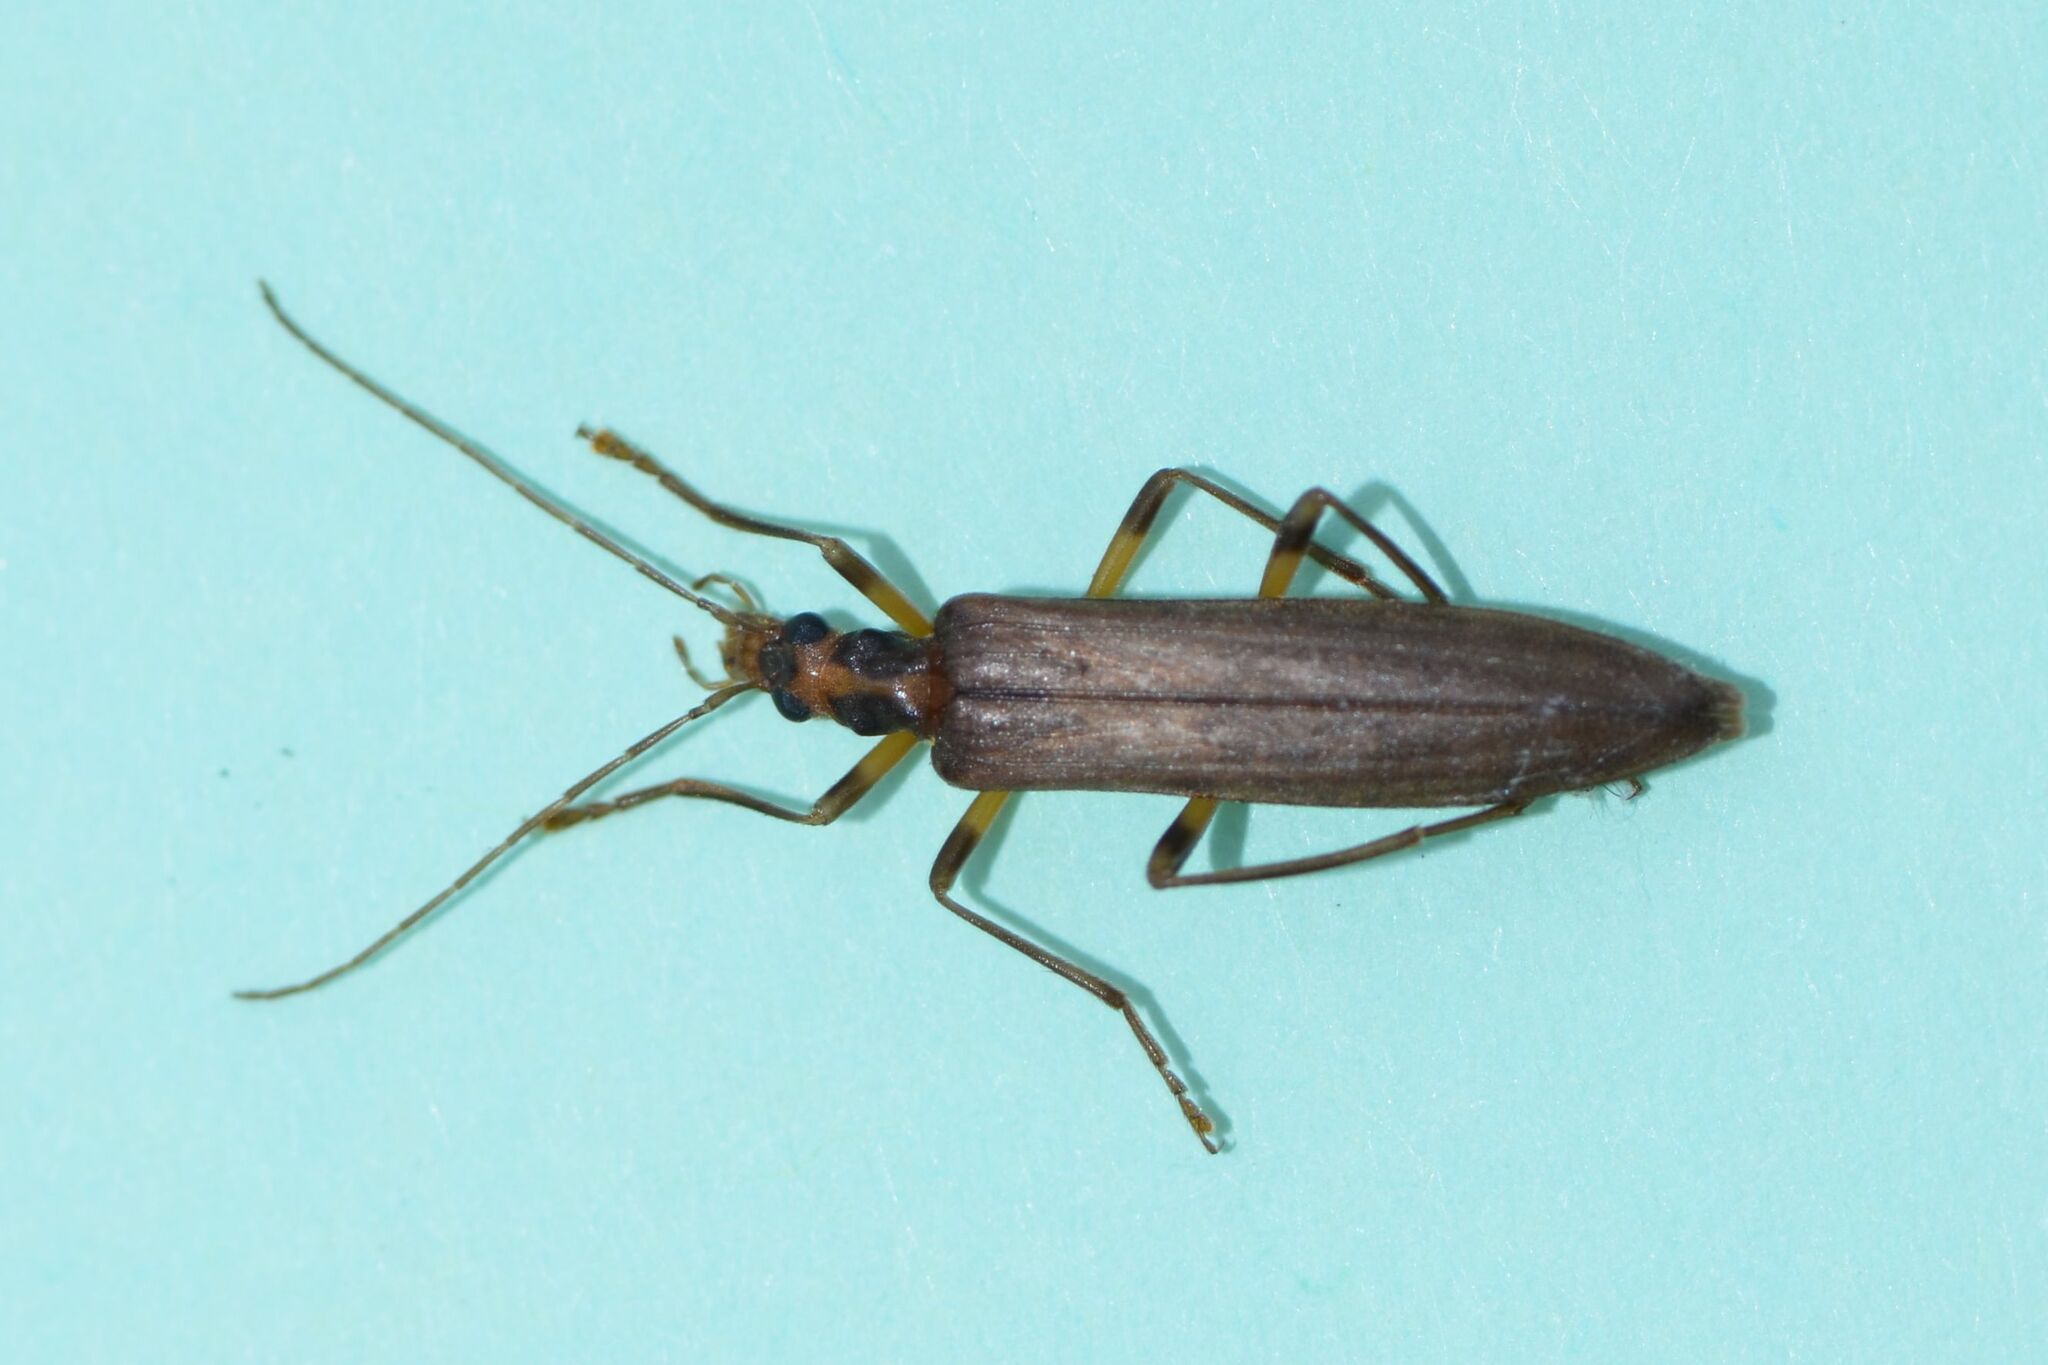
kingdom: Animalia
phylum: Arthropoda
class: Insecta
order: Coleoptera
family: Oedemeridae
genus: Oedemera
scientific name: Oedemera femoralis
